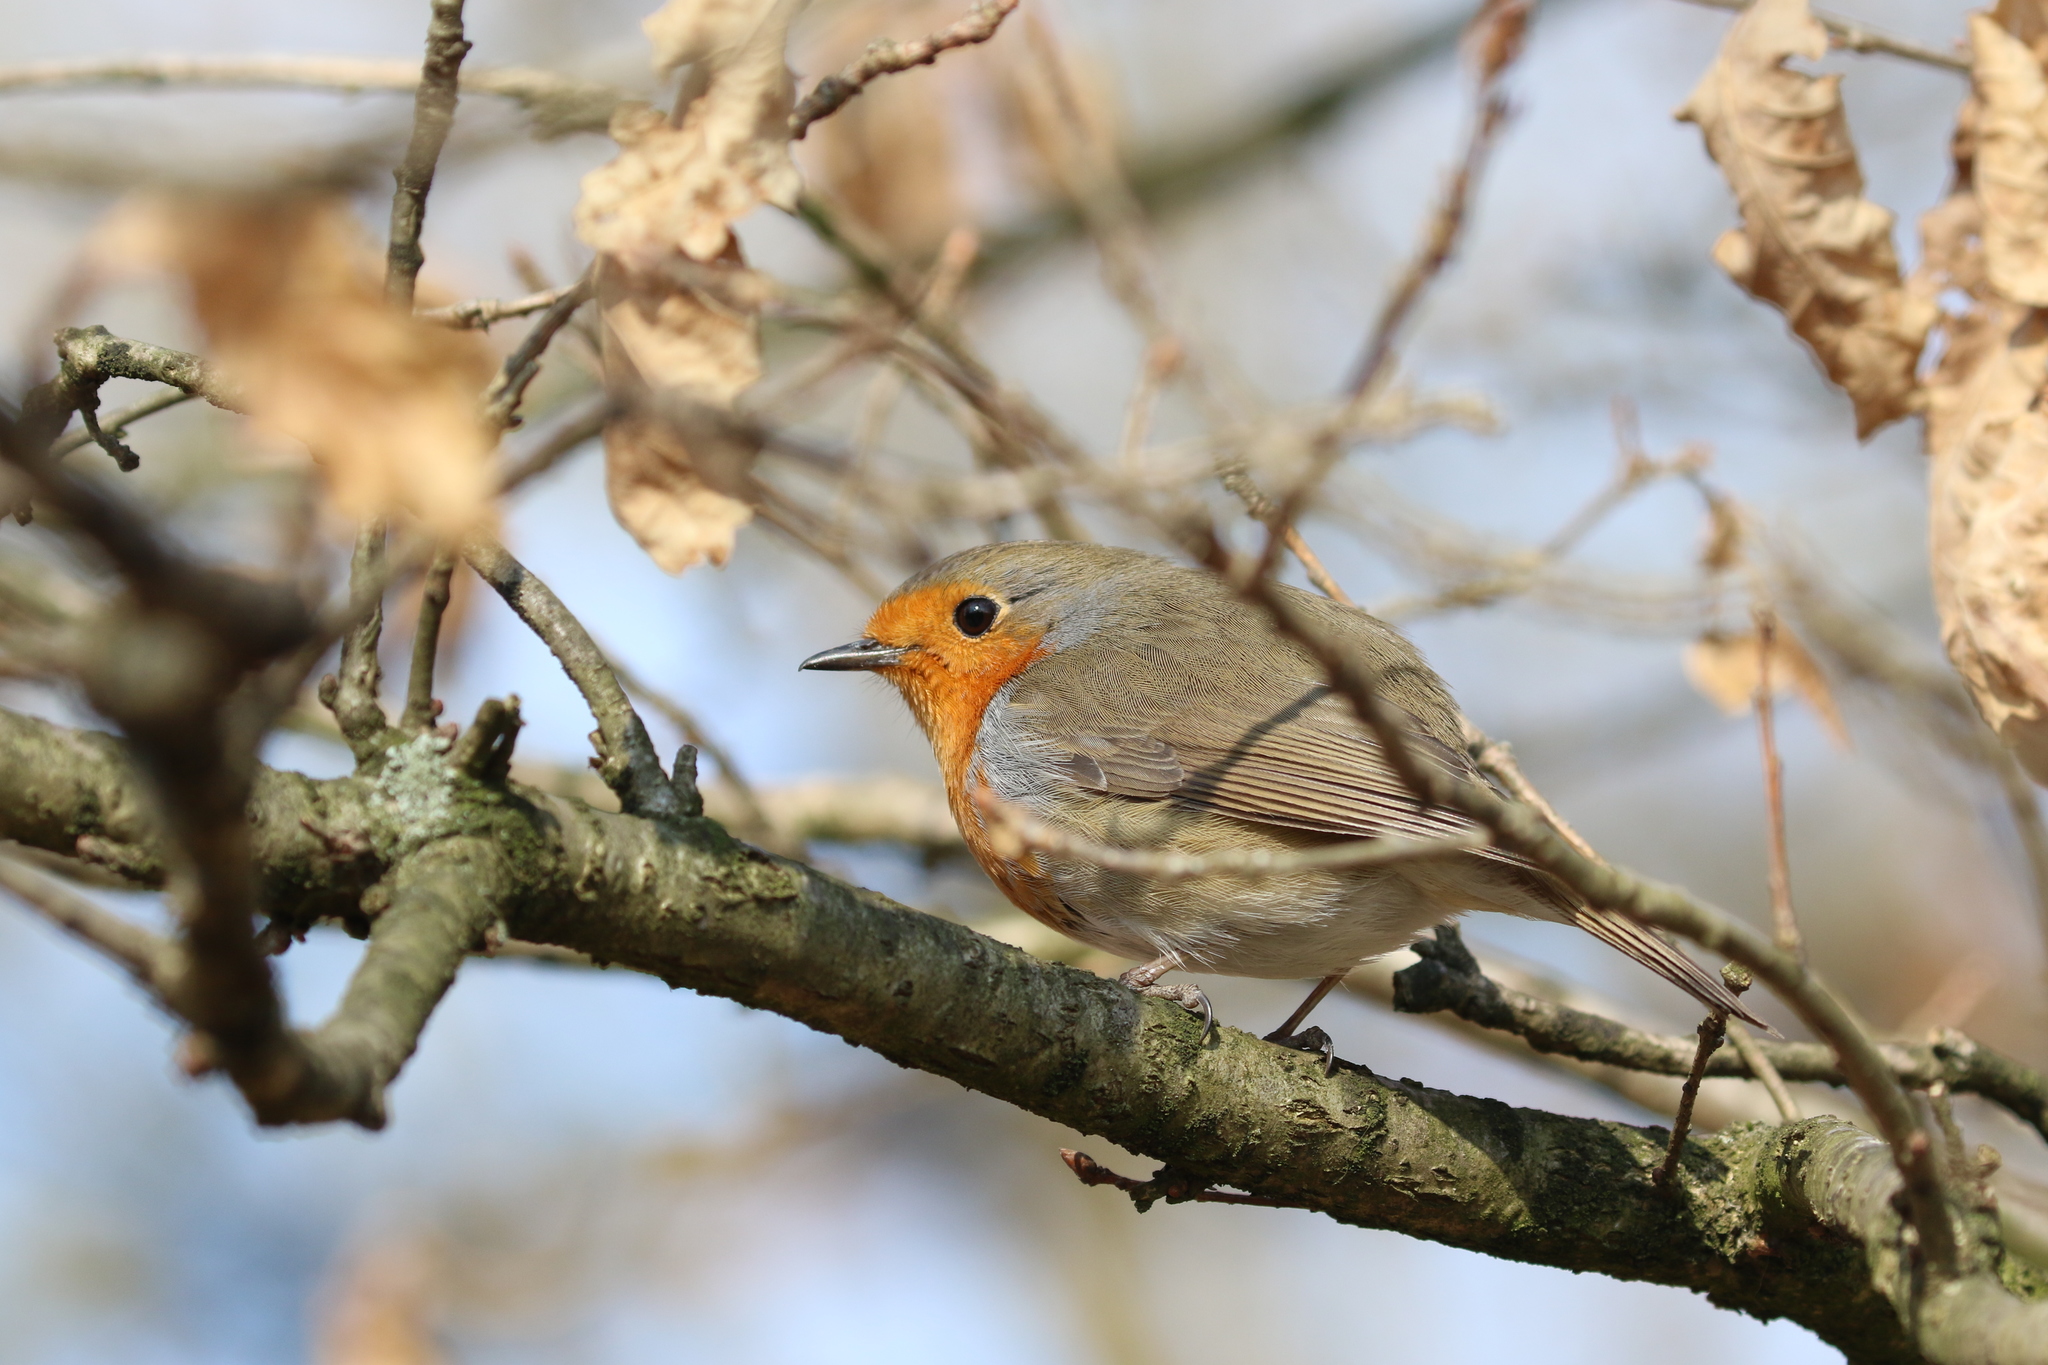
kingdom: Animalia
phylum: Chordata
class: Aves
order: Passeriformes
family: Muscicapidae
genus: Erithacus
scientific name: Erithacus rubecula
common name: European robin
